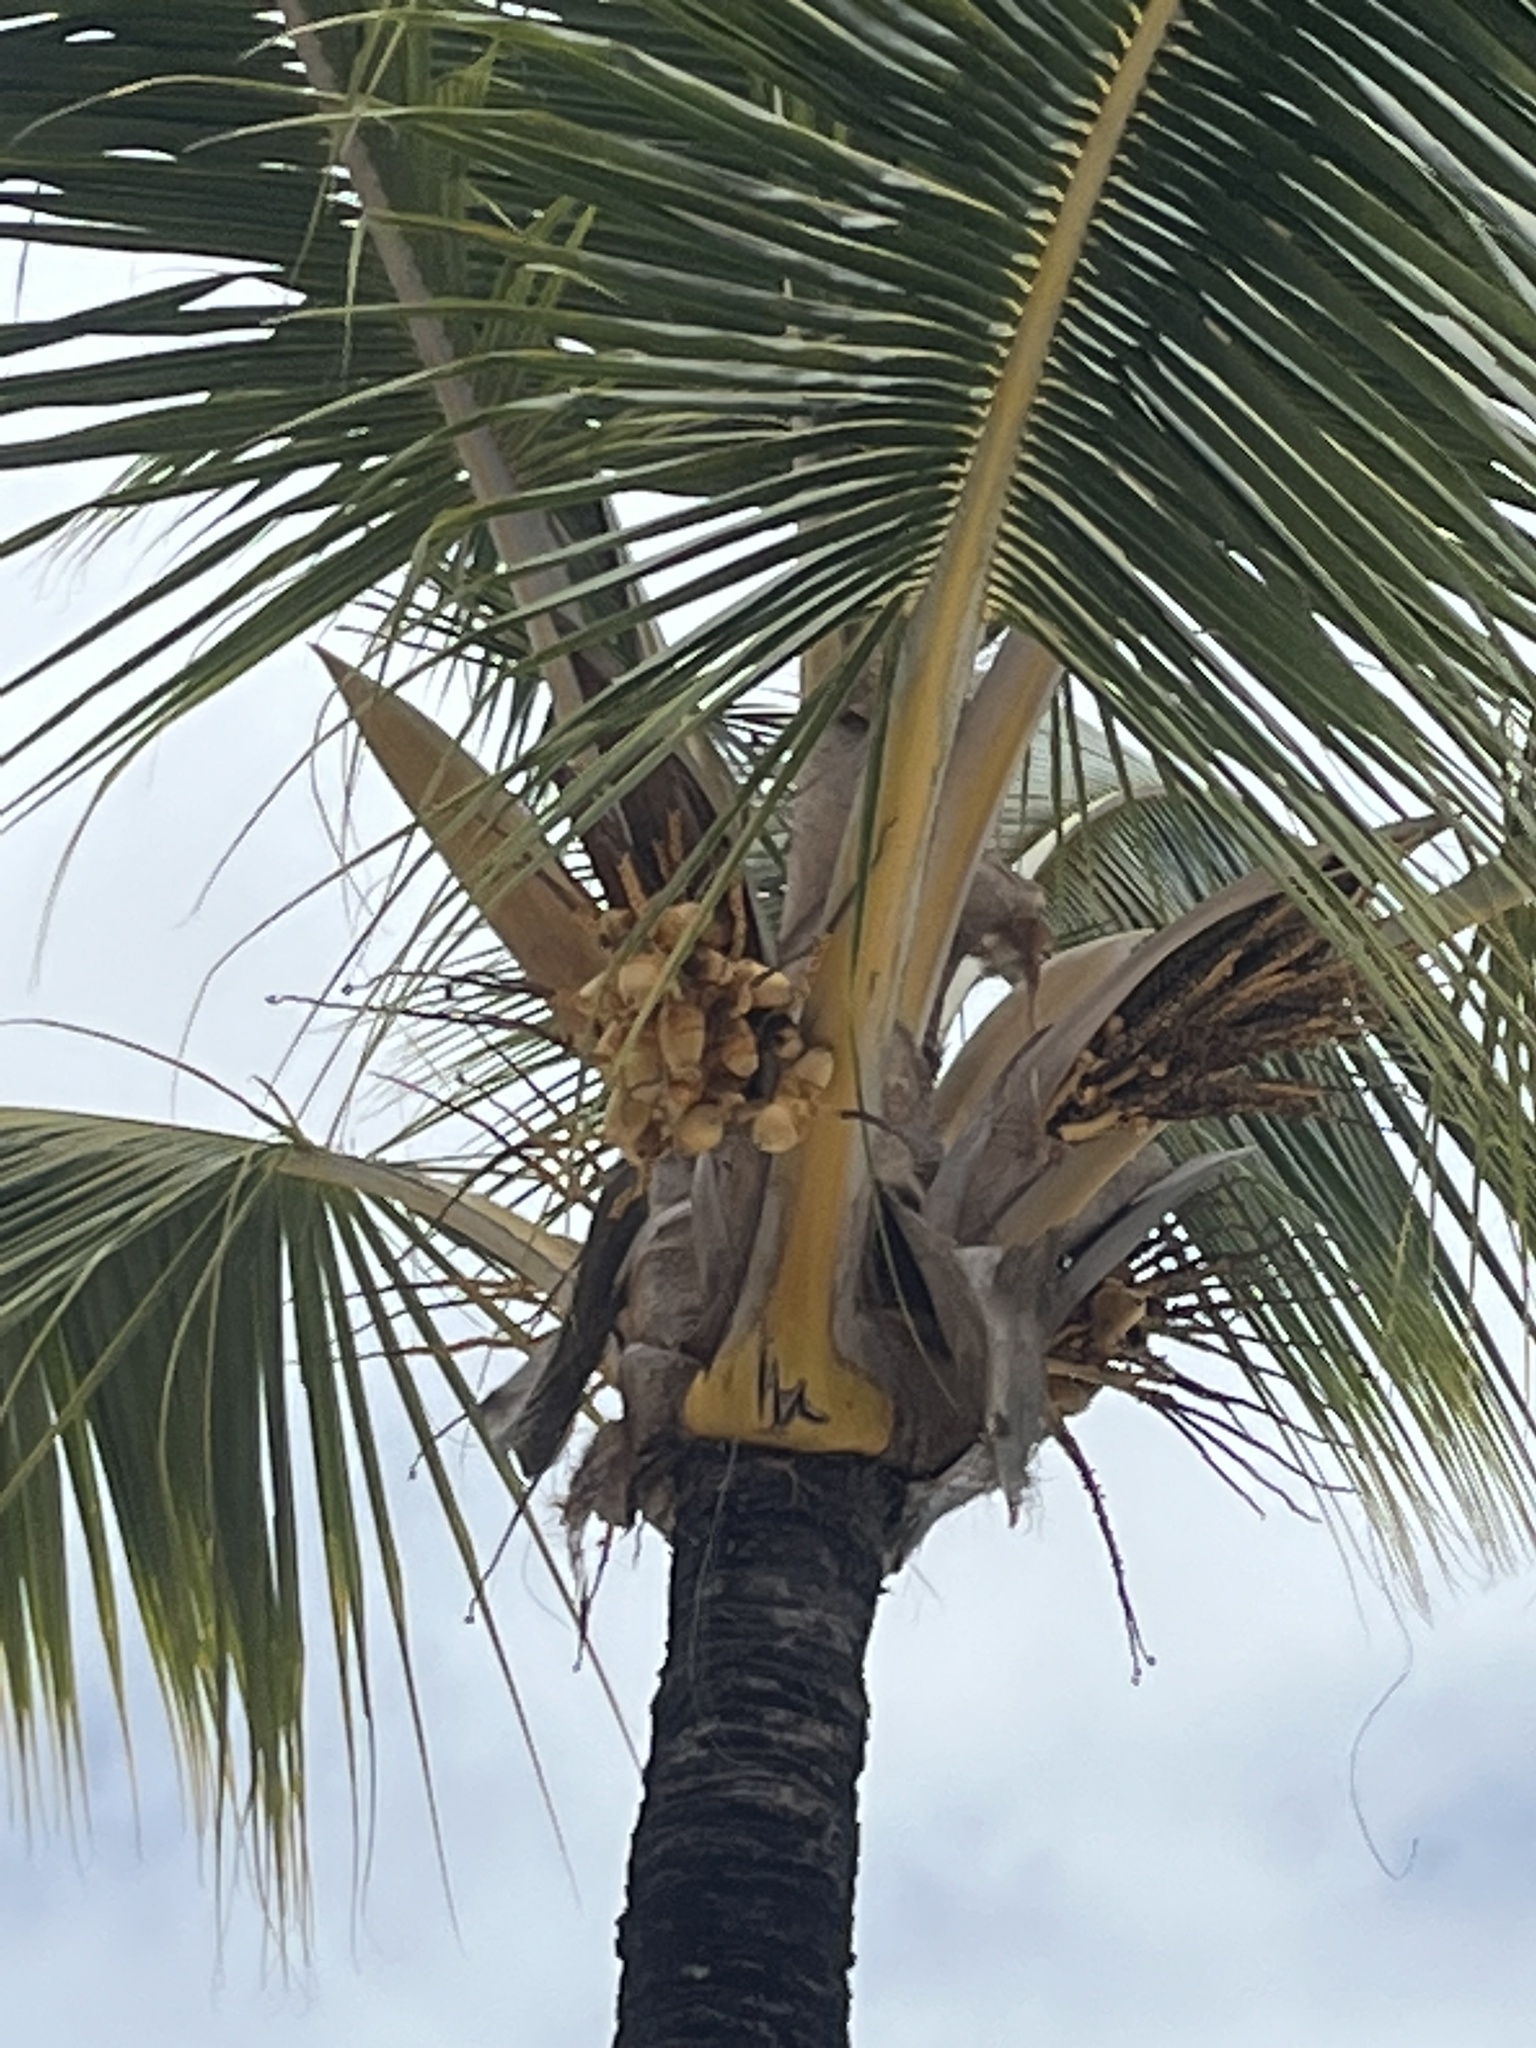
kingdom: Plantae
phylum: Tracheophyta
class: Liliopsida
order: Arecales
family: Arecaceae
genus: Cocos
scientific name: Cocos nucifera
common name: Coconut palm
